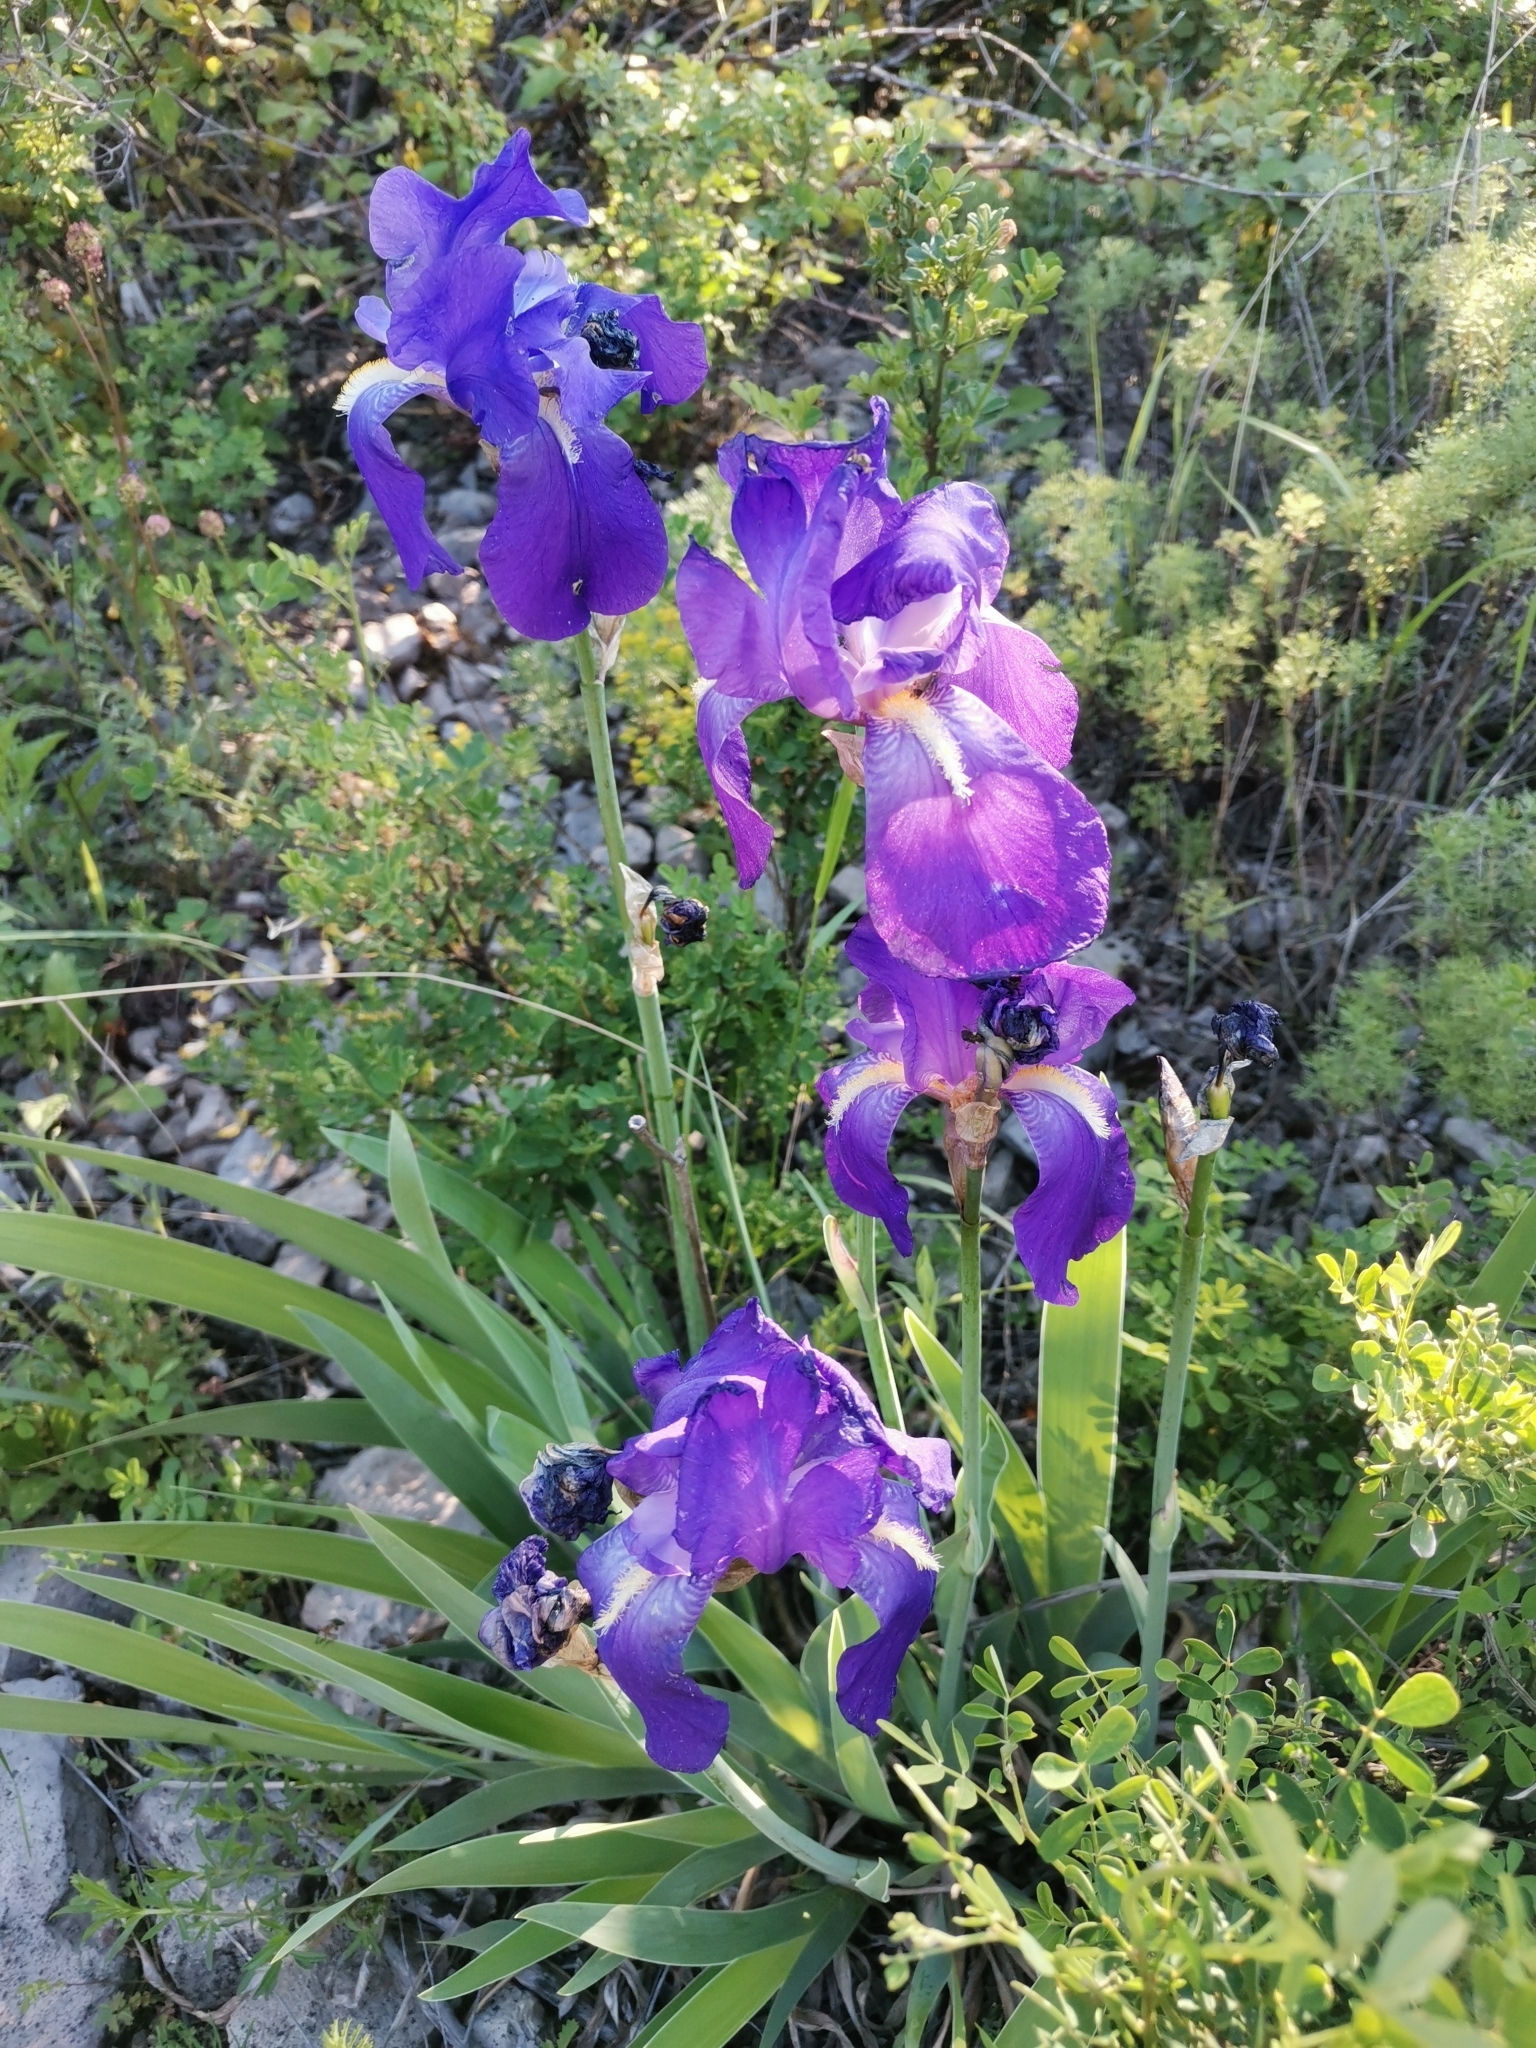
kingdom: Plantae
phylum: Tracheophyta
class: Liliopsida
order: Asparagales
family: Iridaceae
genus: Iris
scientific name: Iris pallida
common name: Sweet iris
